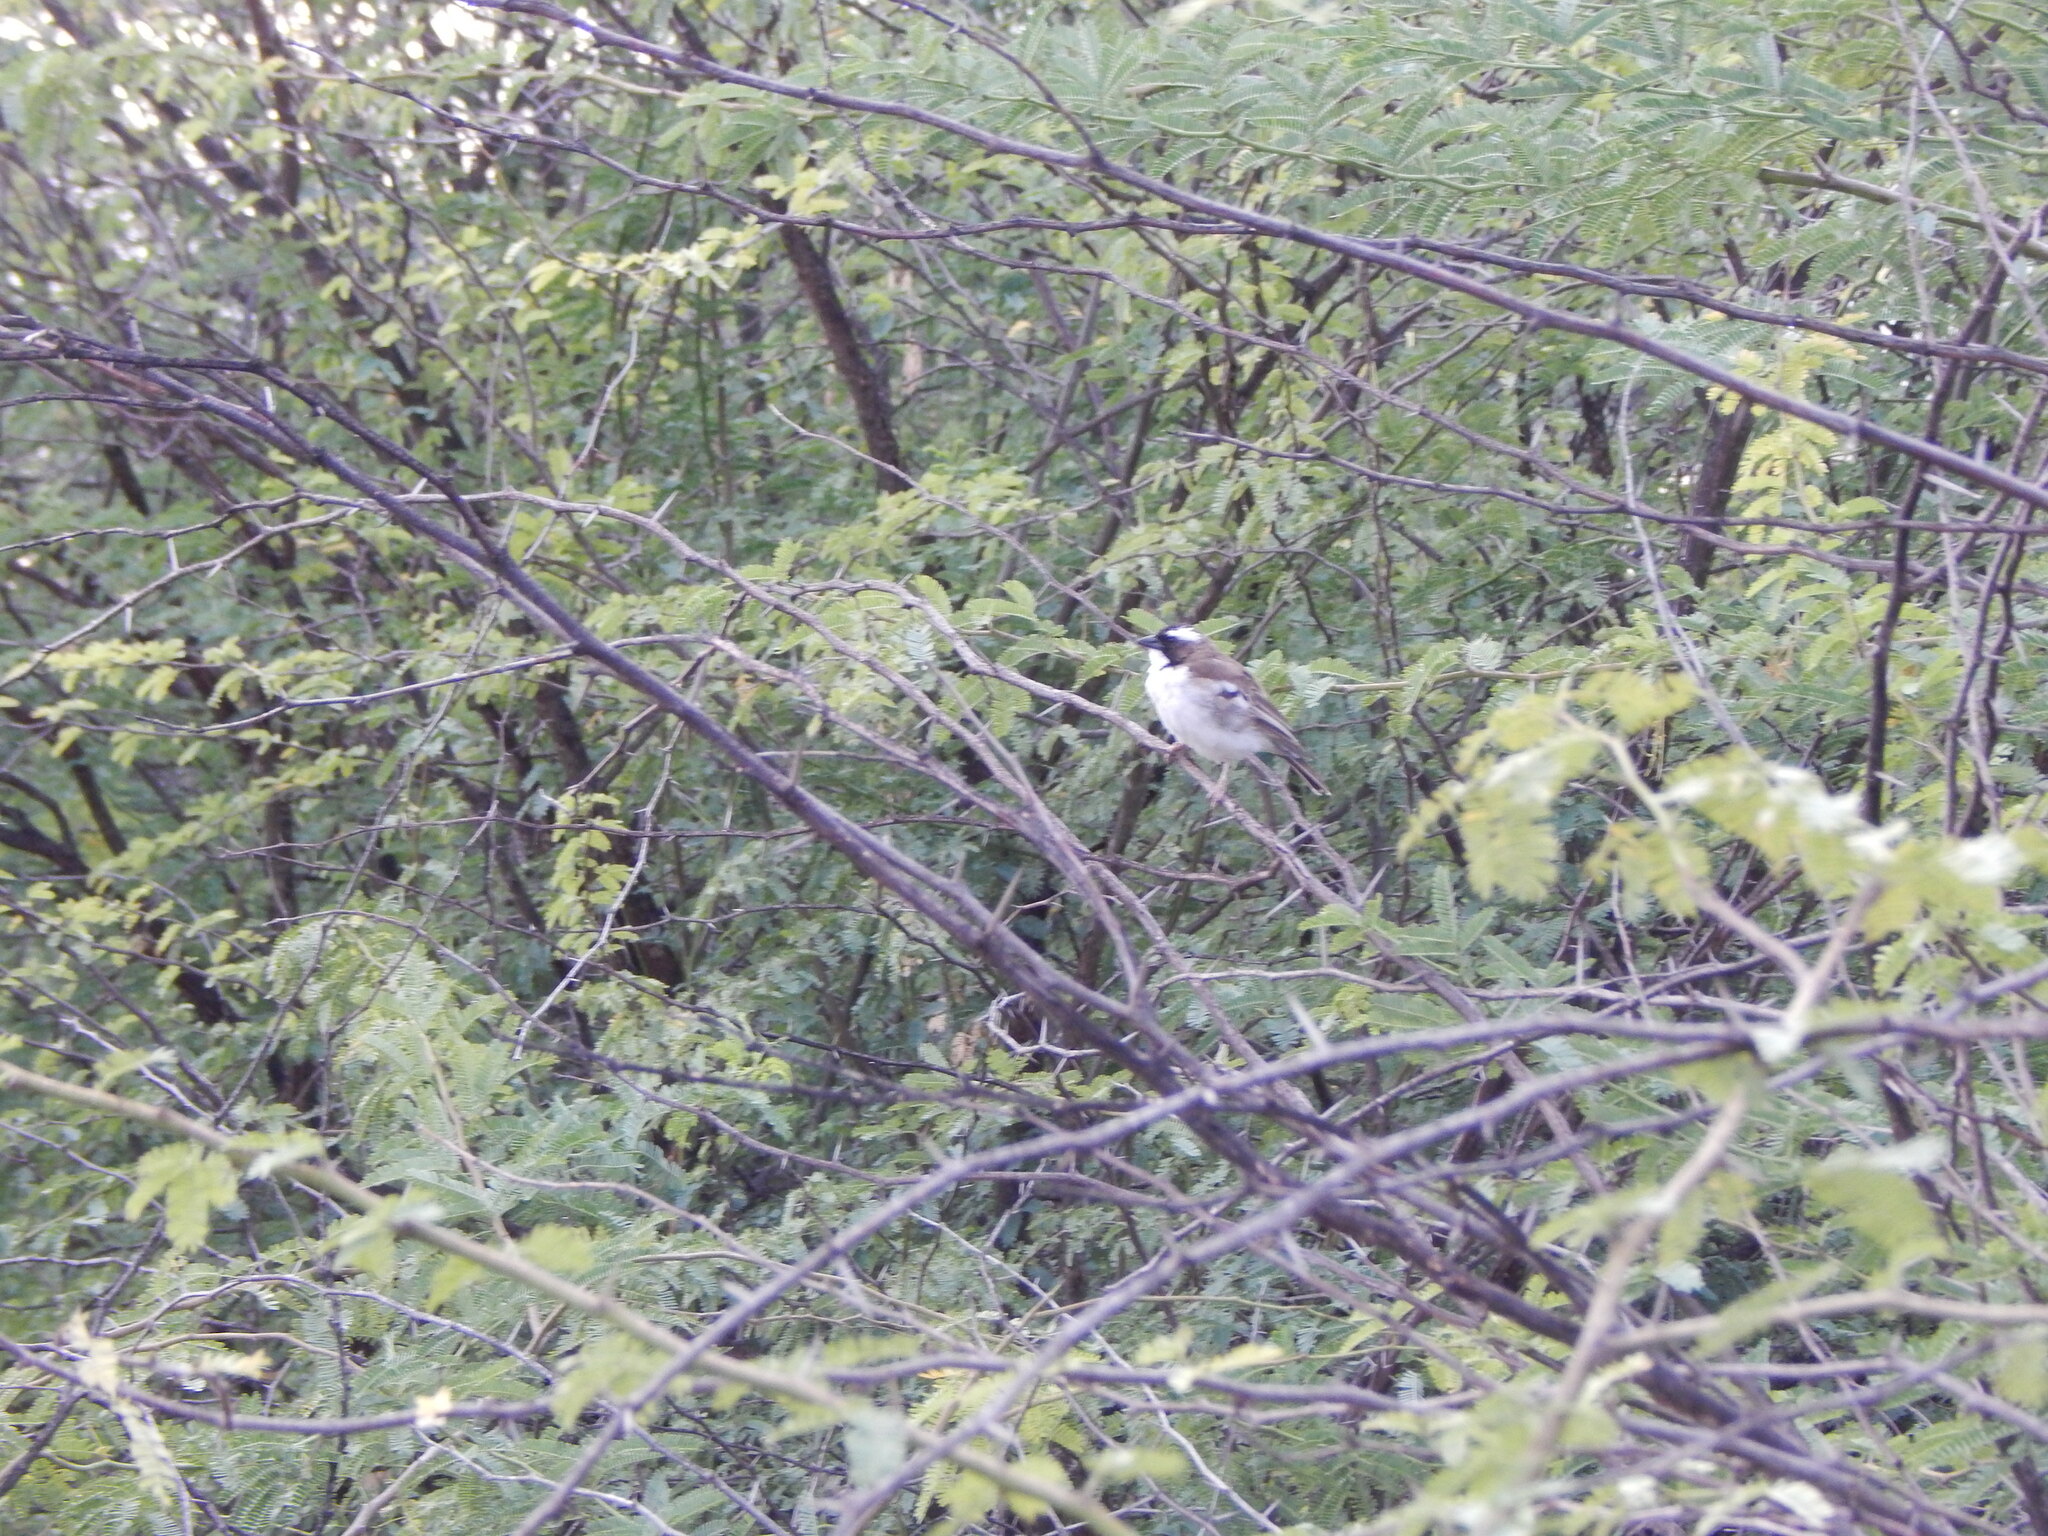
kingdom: Animalia
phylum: Chordata
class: Aves
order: Passeriformes
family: Passeridae
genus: Plocepasser
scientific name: Plocepasser mahali
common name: White-browed sparrow-weaver
